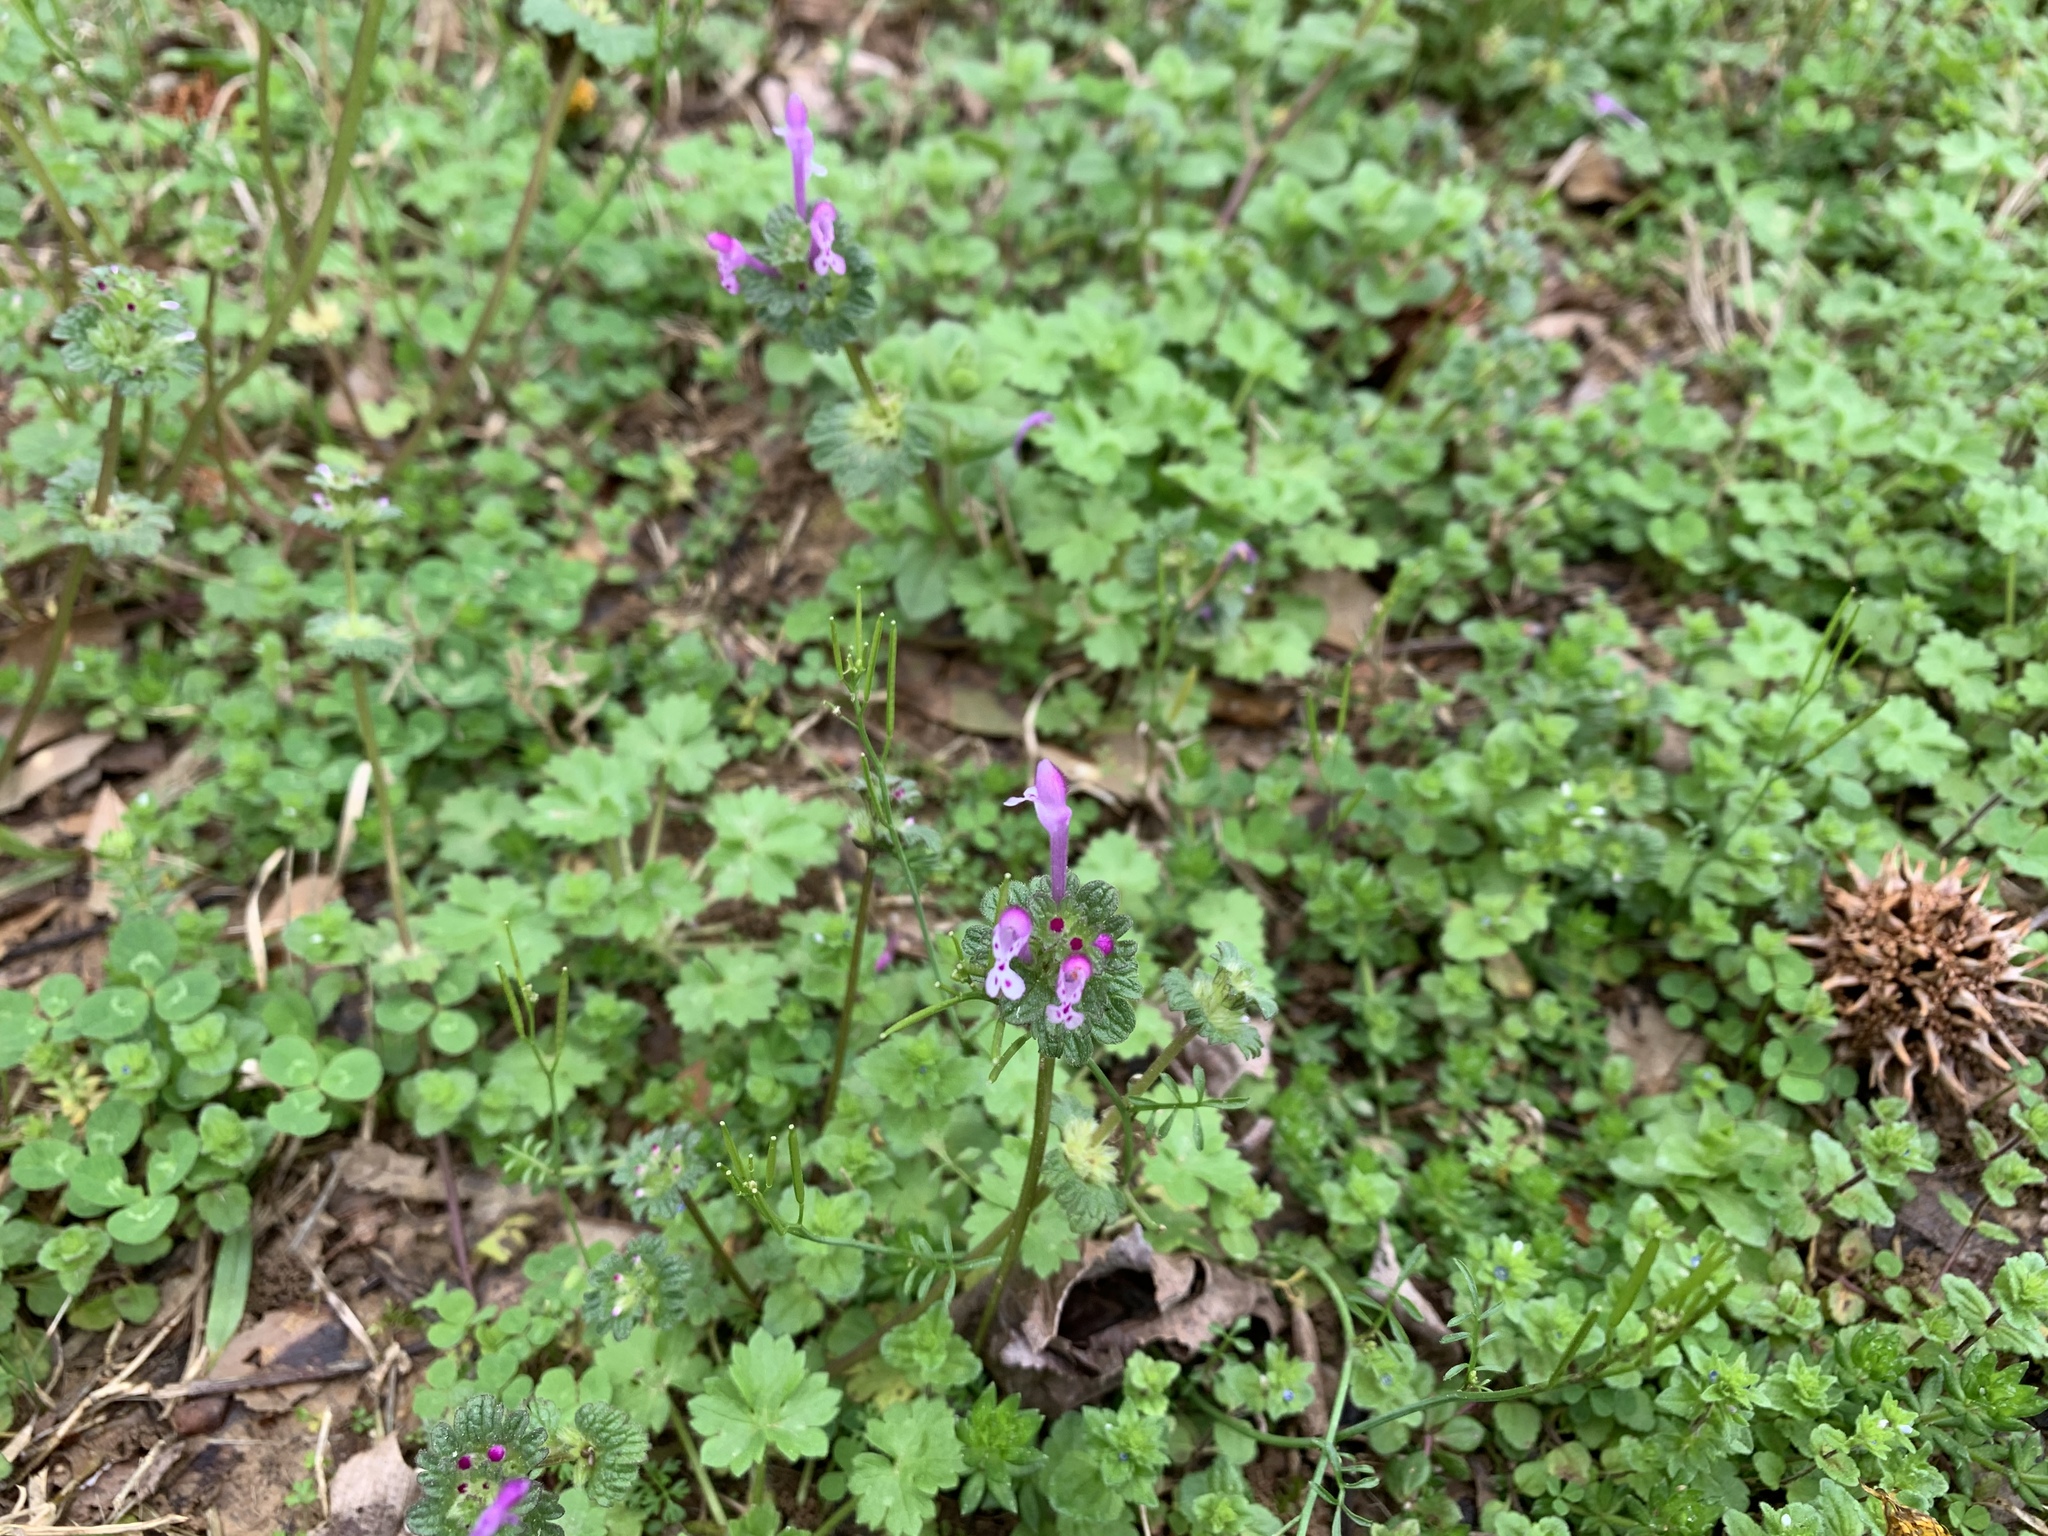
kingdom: Plantae
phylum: Tracheophyta
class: Magnoliopsida
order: Lamiales
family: Lamiaceae
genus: Lamium
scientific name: Lamium amplexicaule
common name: Henbit dead-nettle
